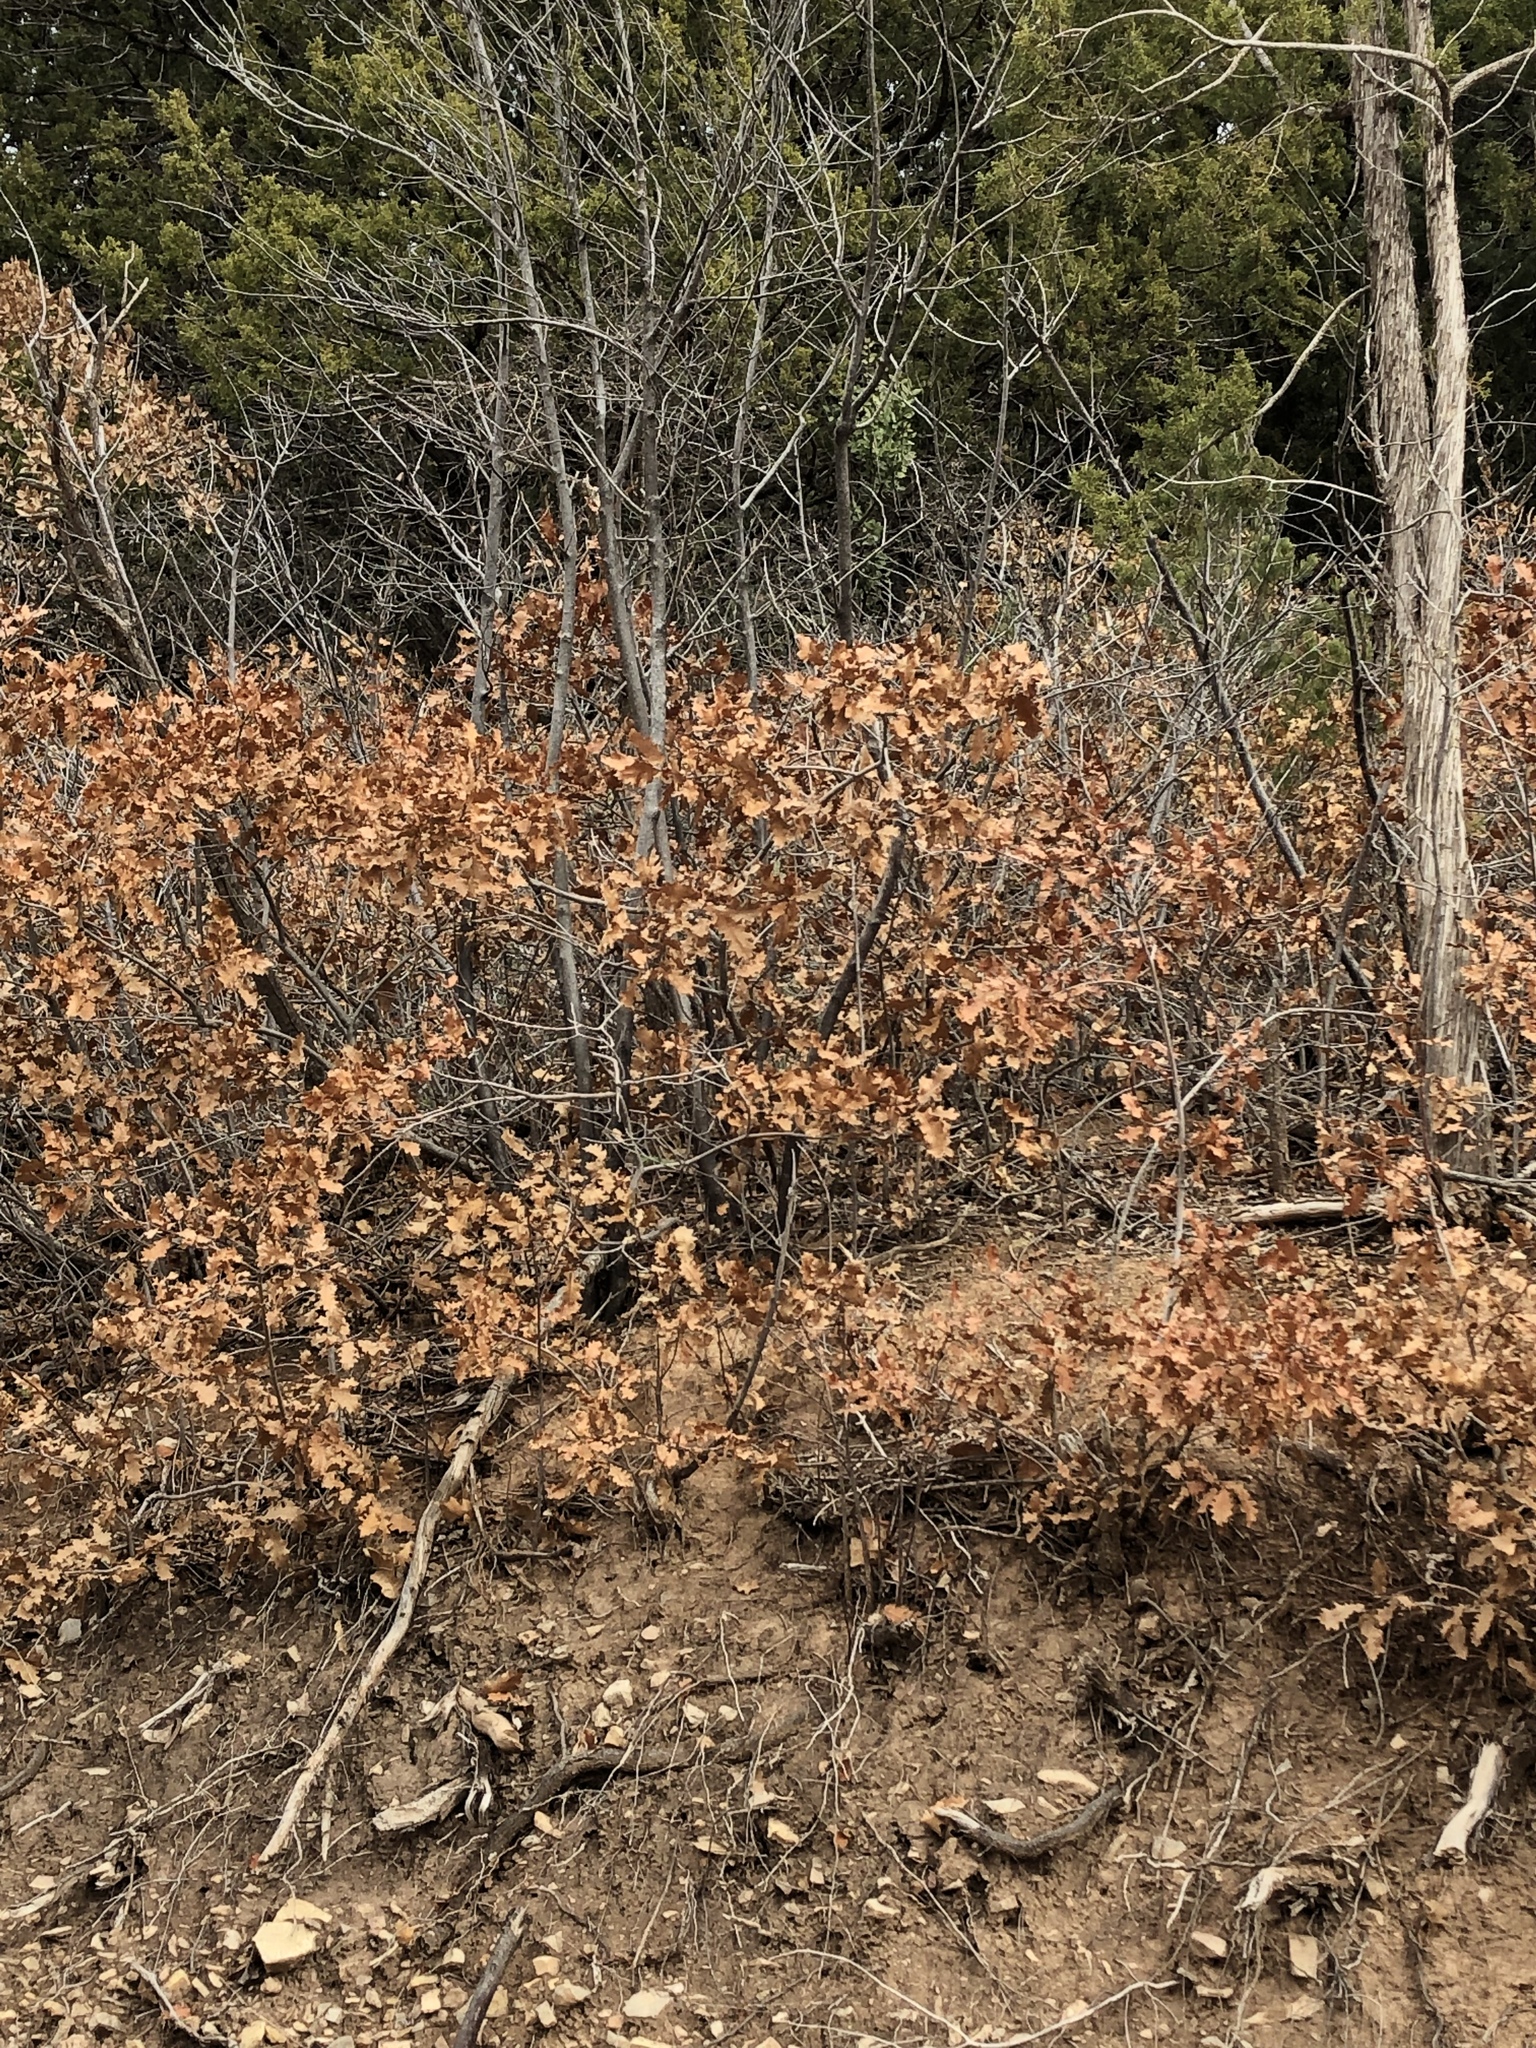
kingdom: Plantae
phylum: Tracheophyta
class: Magnoliopsida
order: Fagales
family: Fagaceae
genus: Quercus
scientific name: Quercus gambelii
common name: Gambel oak
